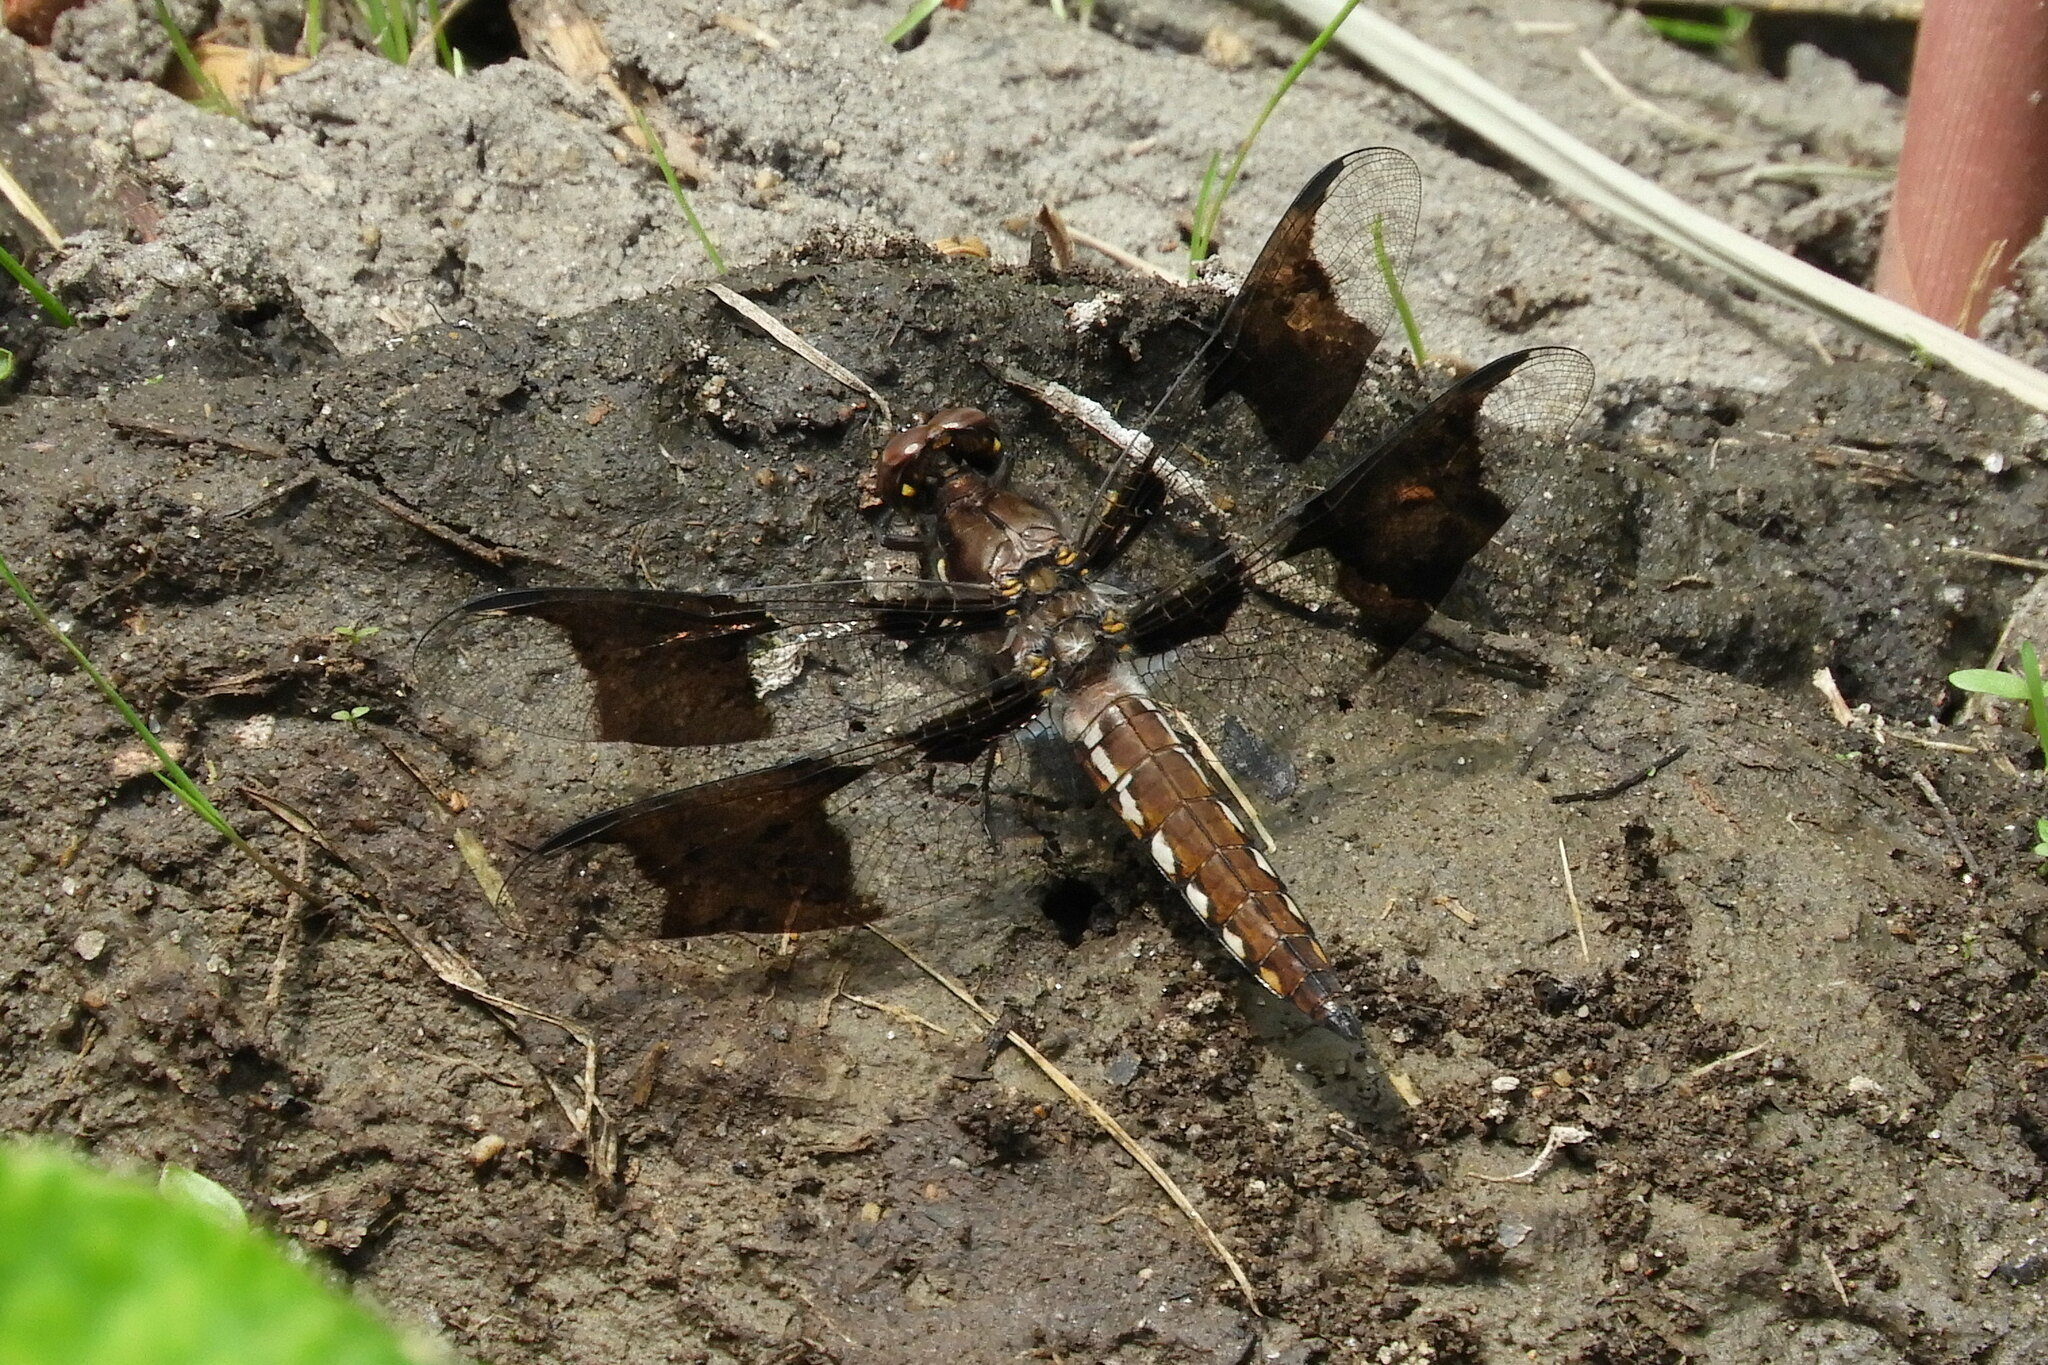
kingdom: Animalia
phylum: Arthropoda
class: Insecta
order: Odonata
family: Libellulidae
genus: Plathemis
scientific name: Plathemis lydia
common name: Common whitetail
